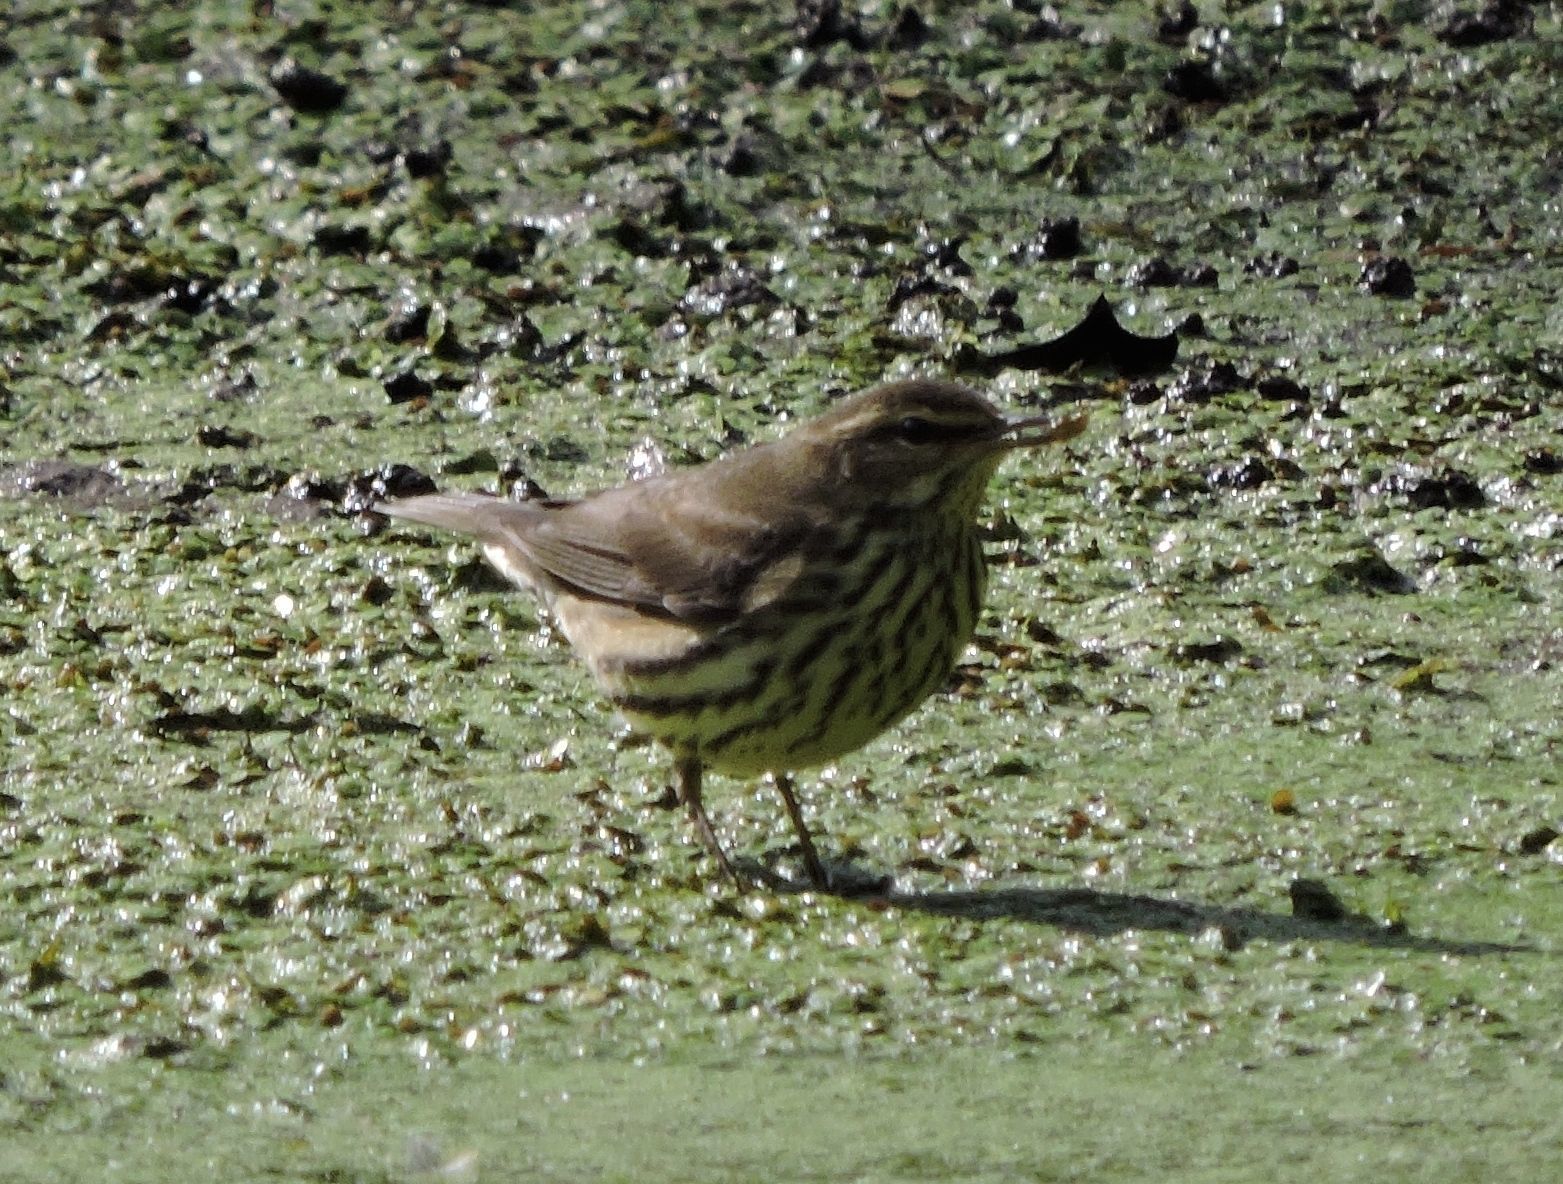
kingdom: Animalia
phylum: Chordata
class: Aves
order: Passeriformes
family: Parulidae
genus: Parkesia
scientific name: Parkesia noveboracensis
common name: Northern waterthrush
